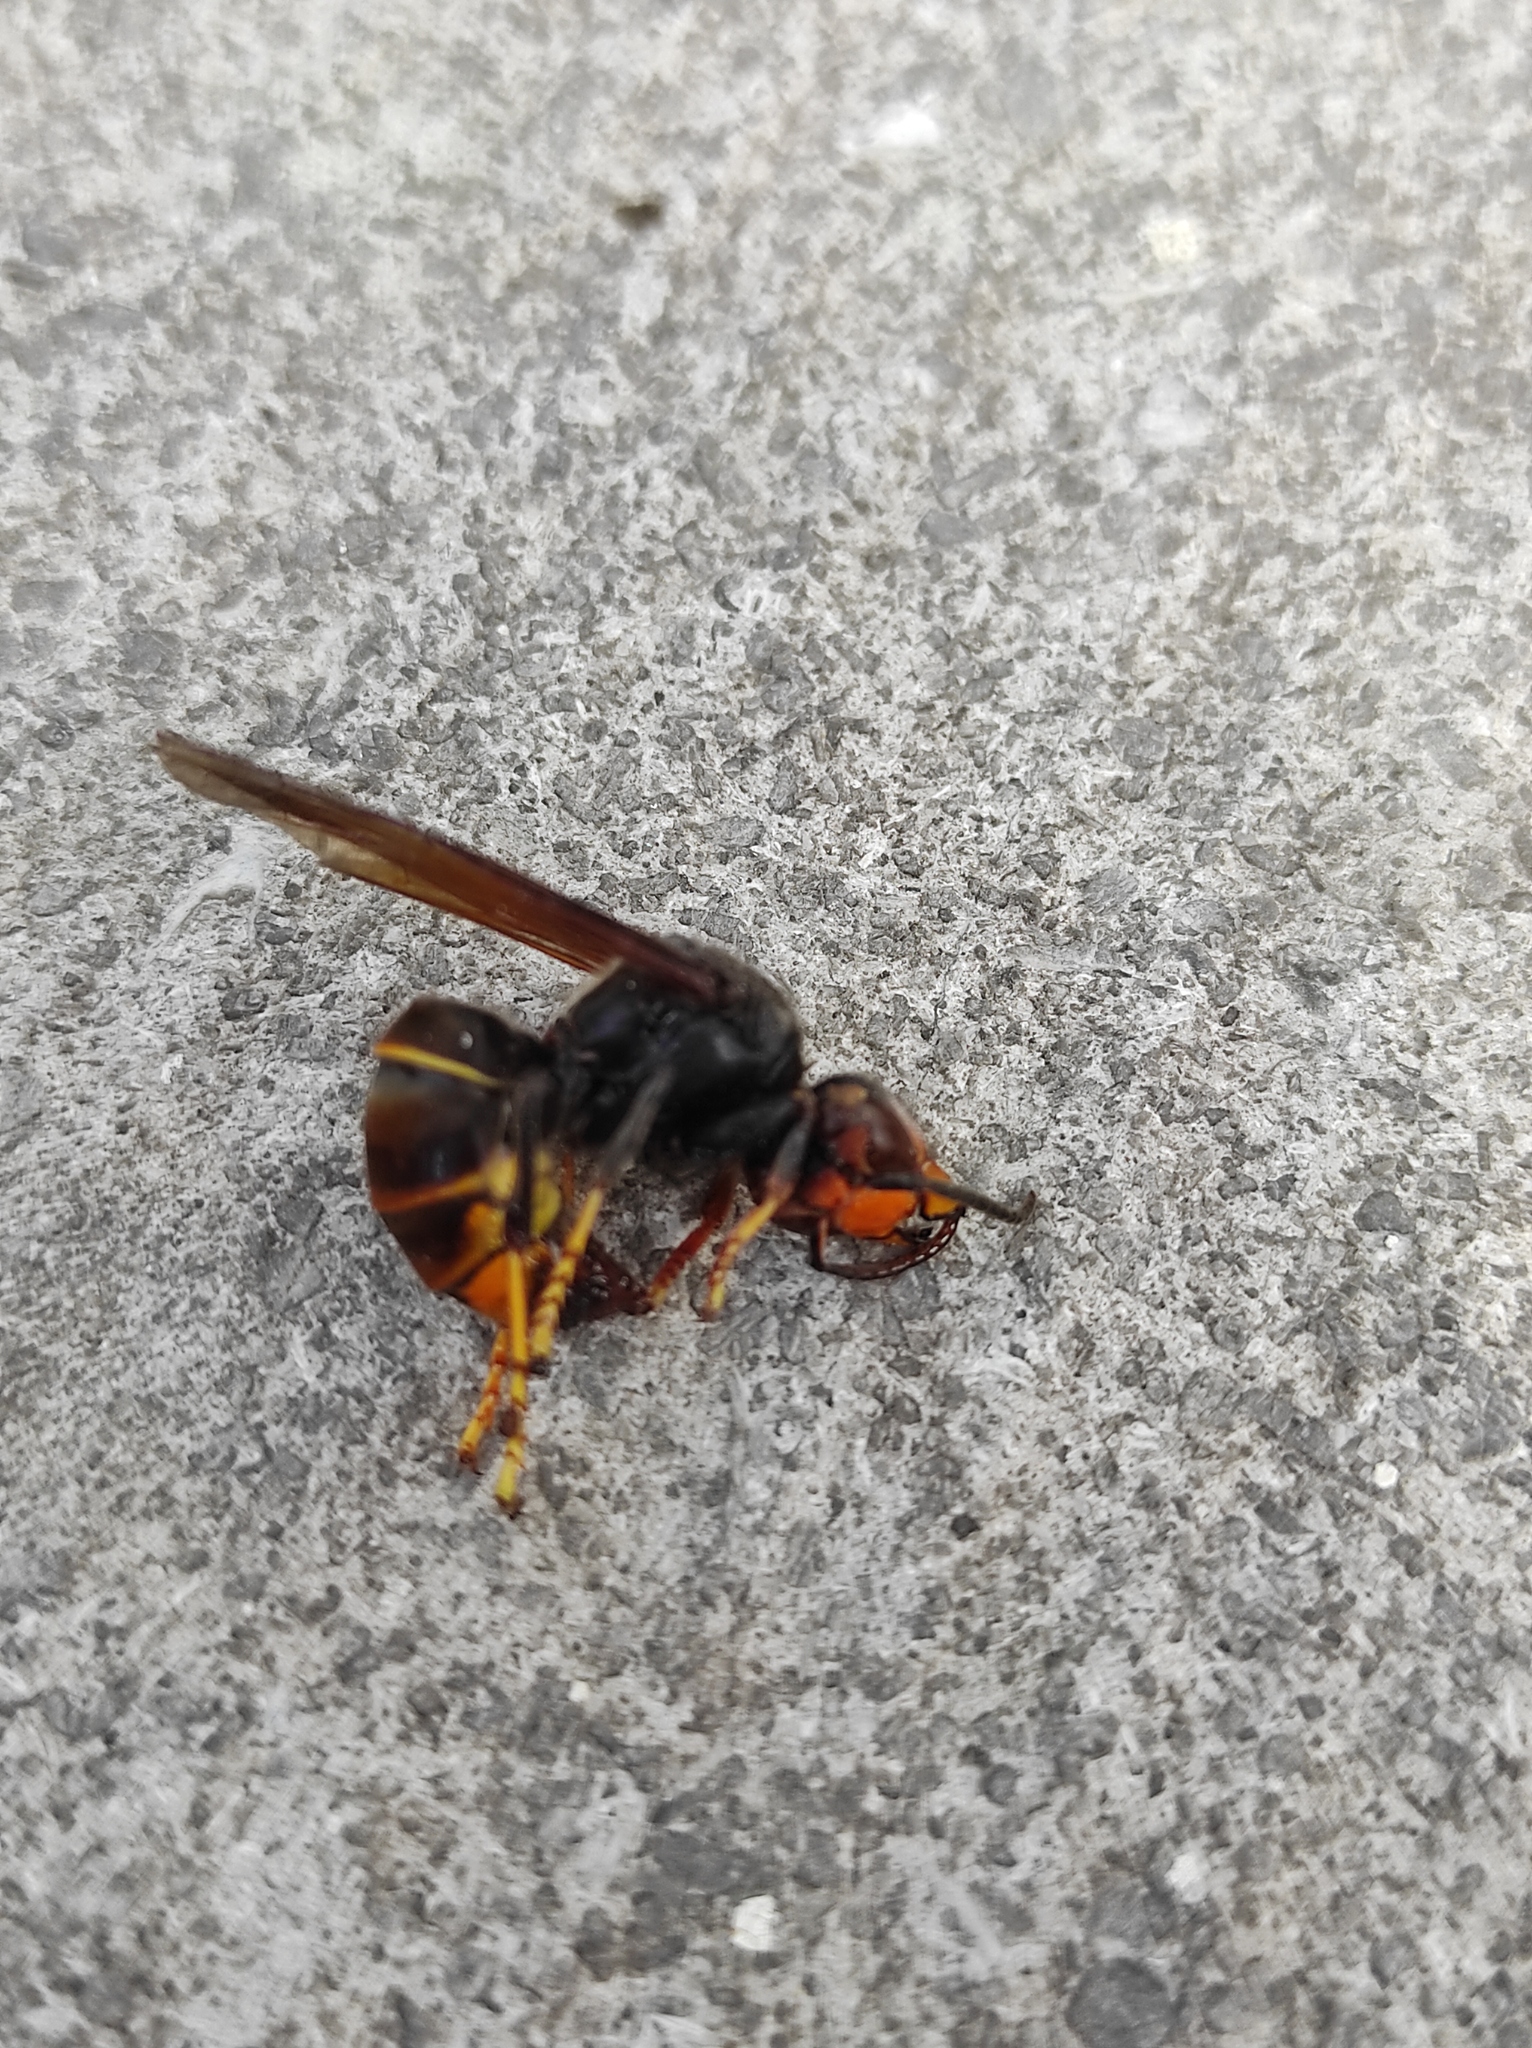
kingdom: Animalia
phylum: Arthropoda
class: Insecta
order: Hymenoptera
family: Vespidae
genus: Vespa
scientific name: Vespa velutina
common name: Asian hornet
